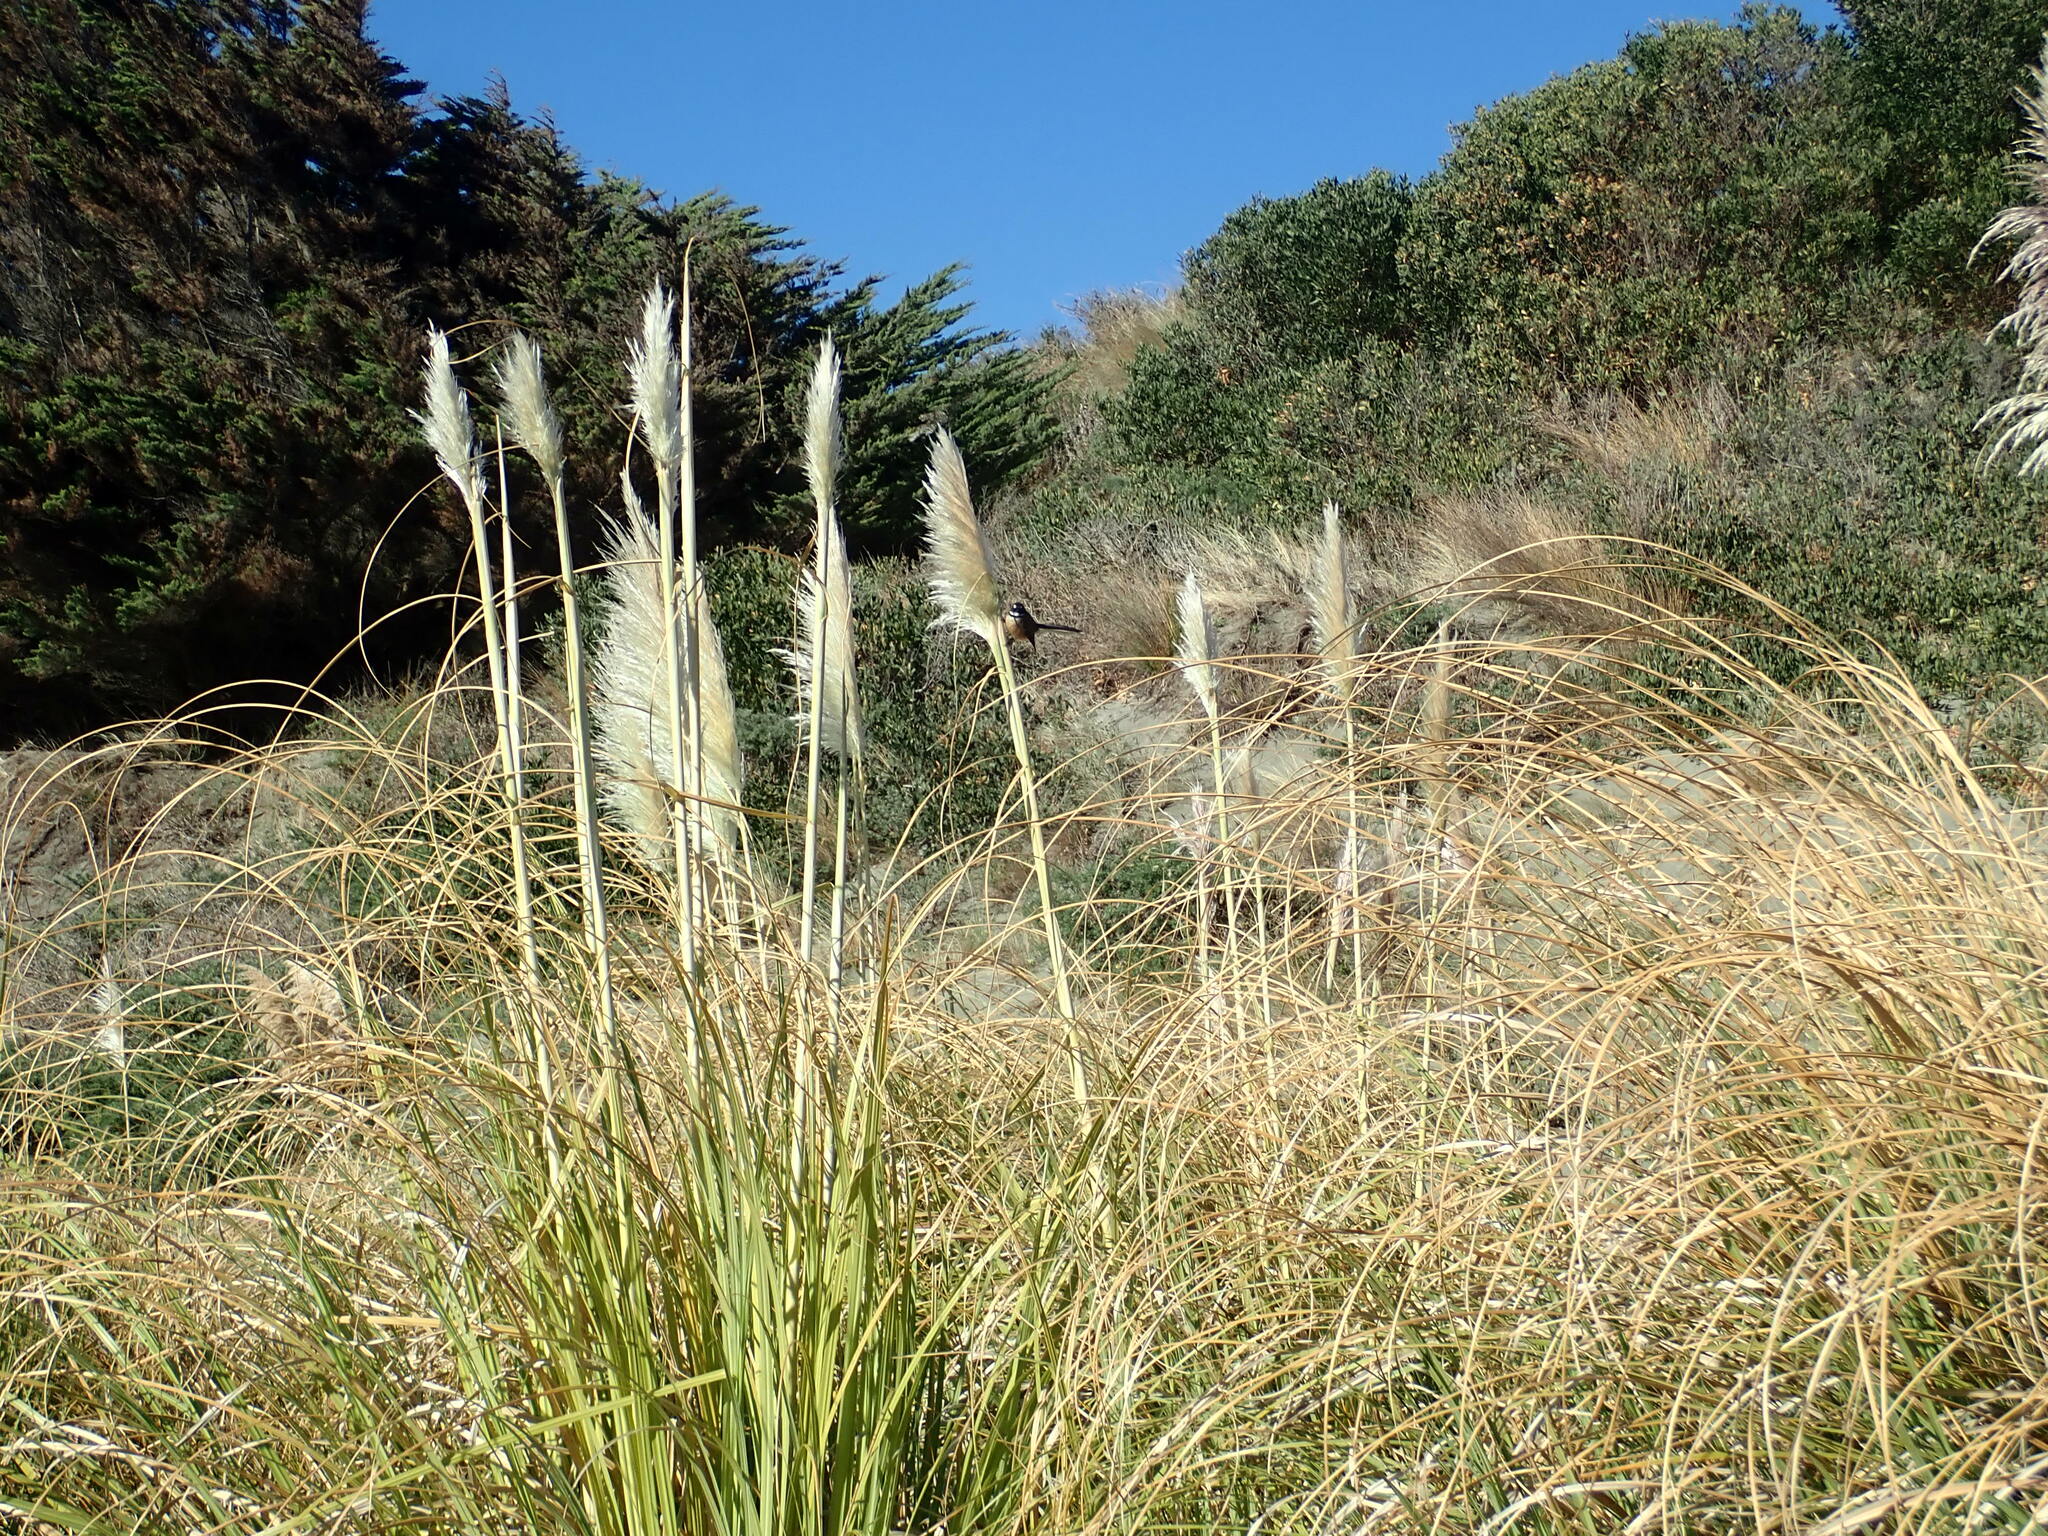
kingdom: Animalia
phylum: Chordata
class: Aves
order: Passeriformes
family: Rhipiduridae
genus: Rhipidura
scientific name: Rhipidura fuliginosa
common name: New zealand fantail
